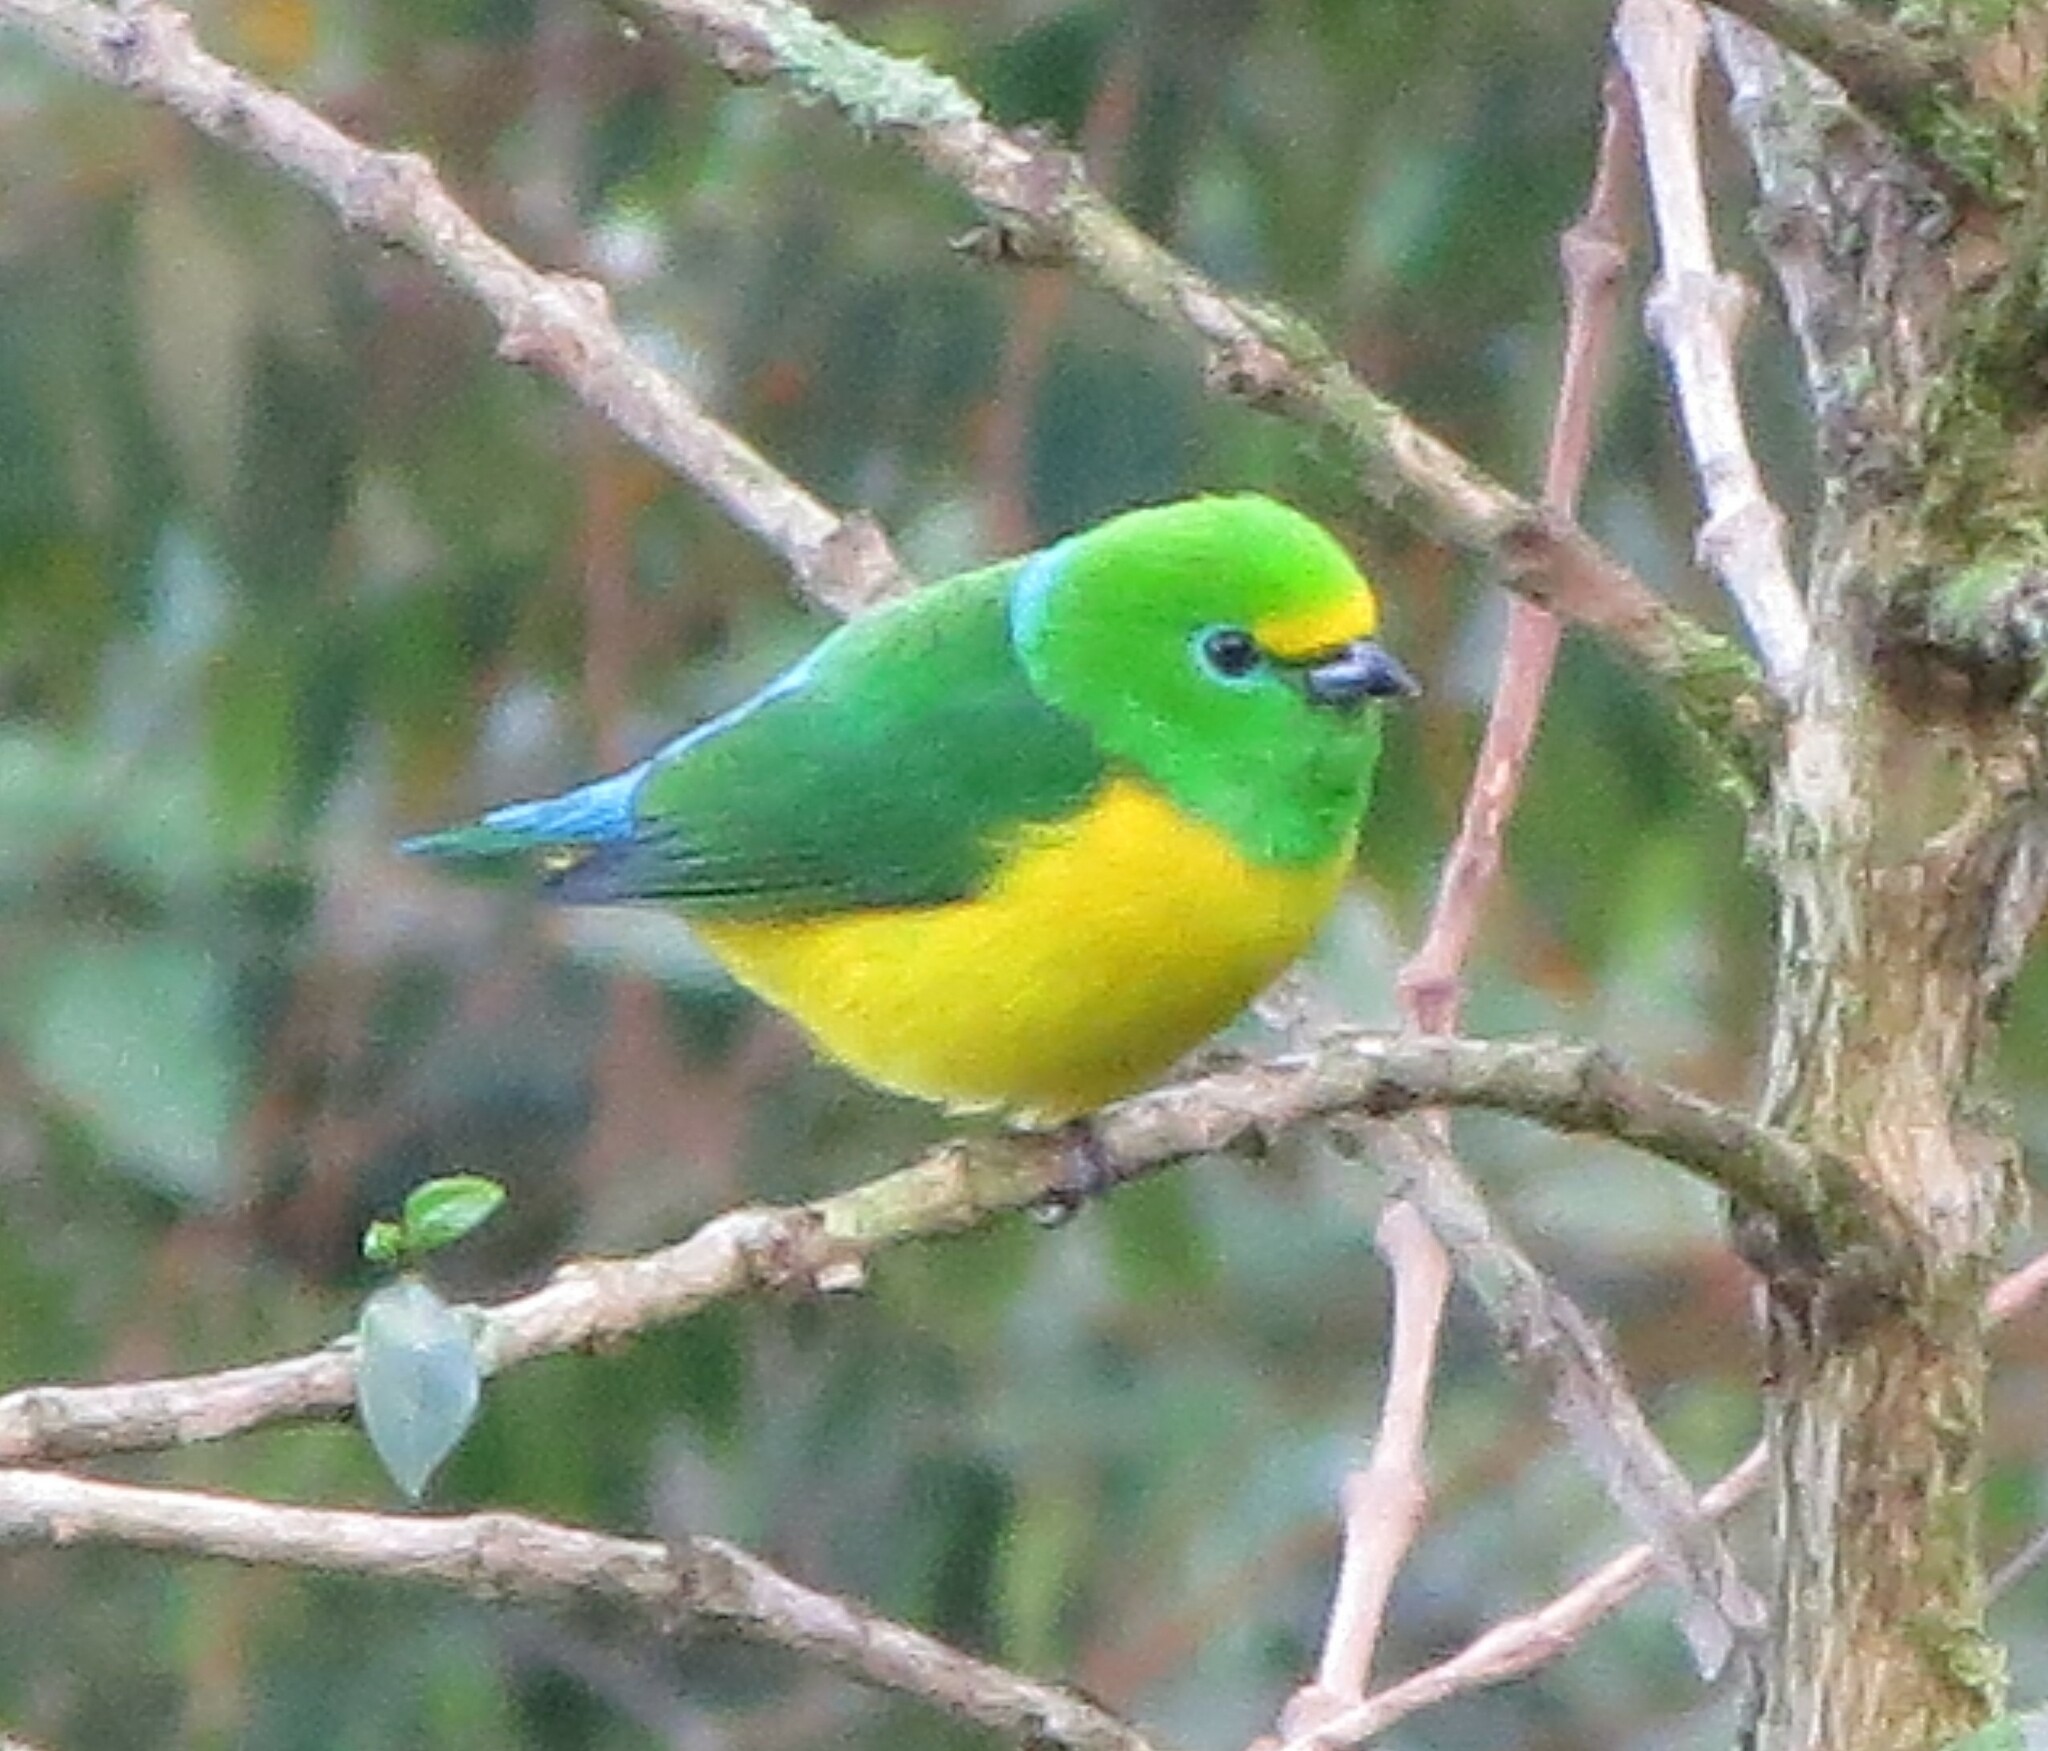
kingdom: Animalia
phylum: Chordata
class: Aves
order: Passeriformes
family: Fringillidae
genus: Chlorophonia
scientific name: Chlorophonia cyanea
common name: Blue-naped chlorophonia
